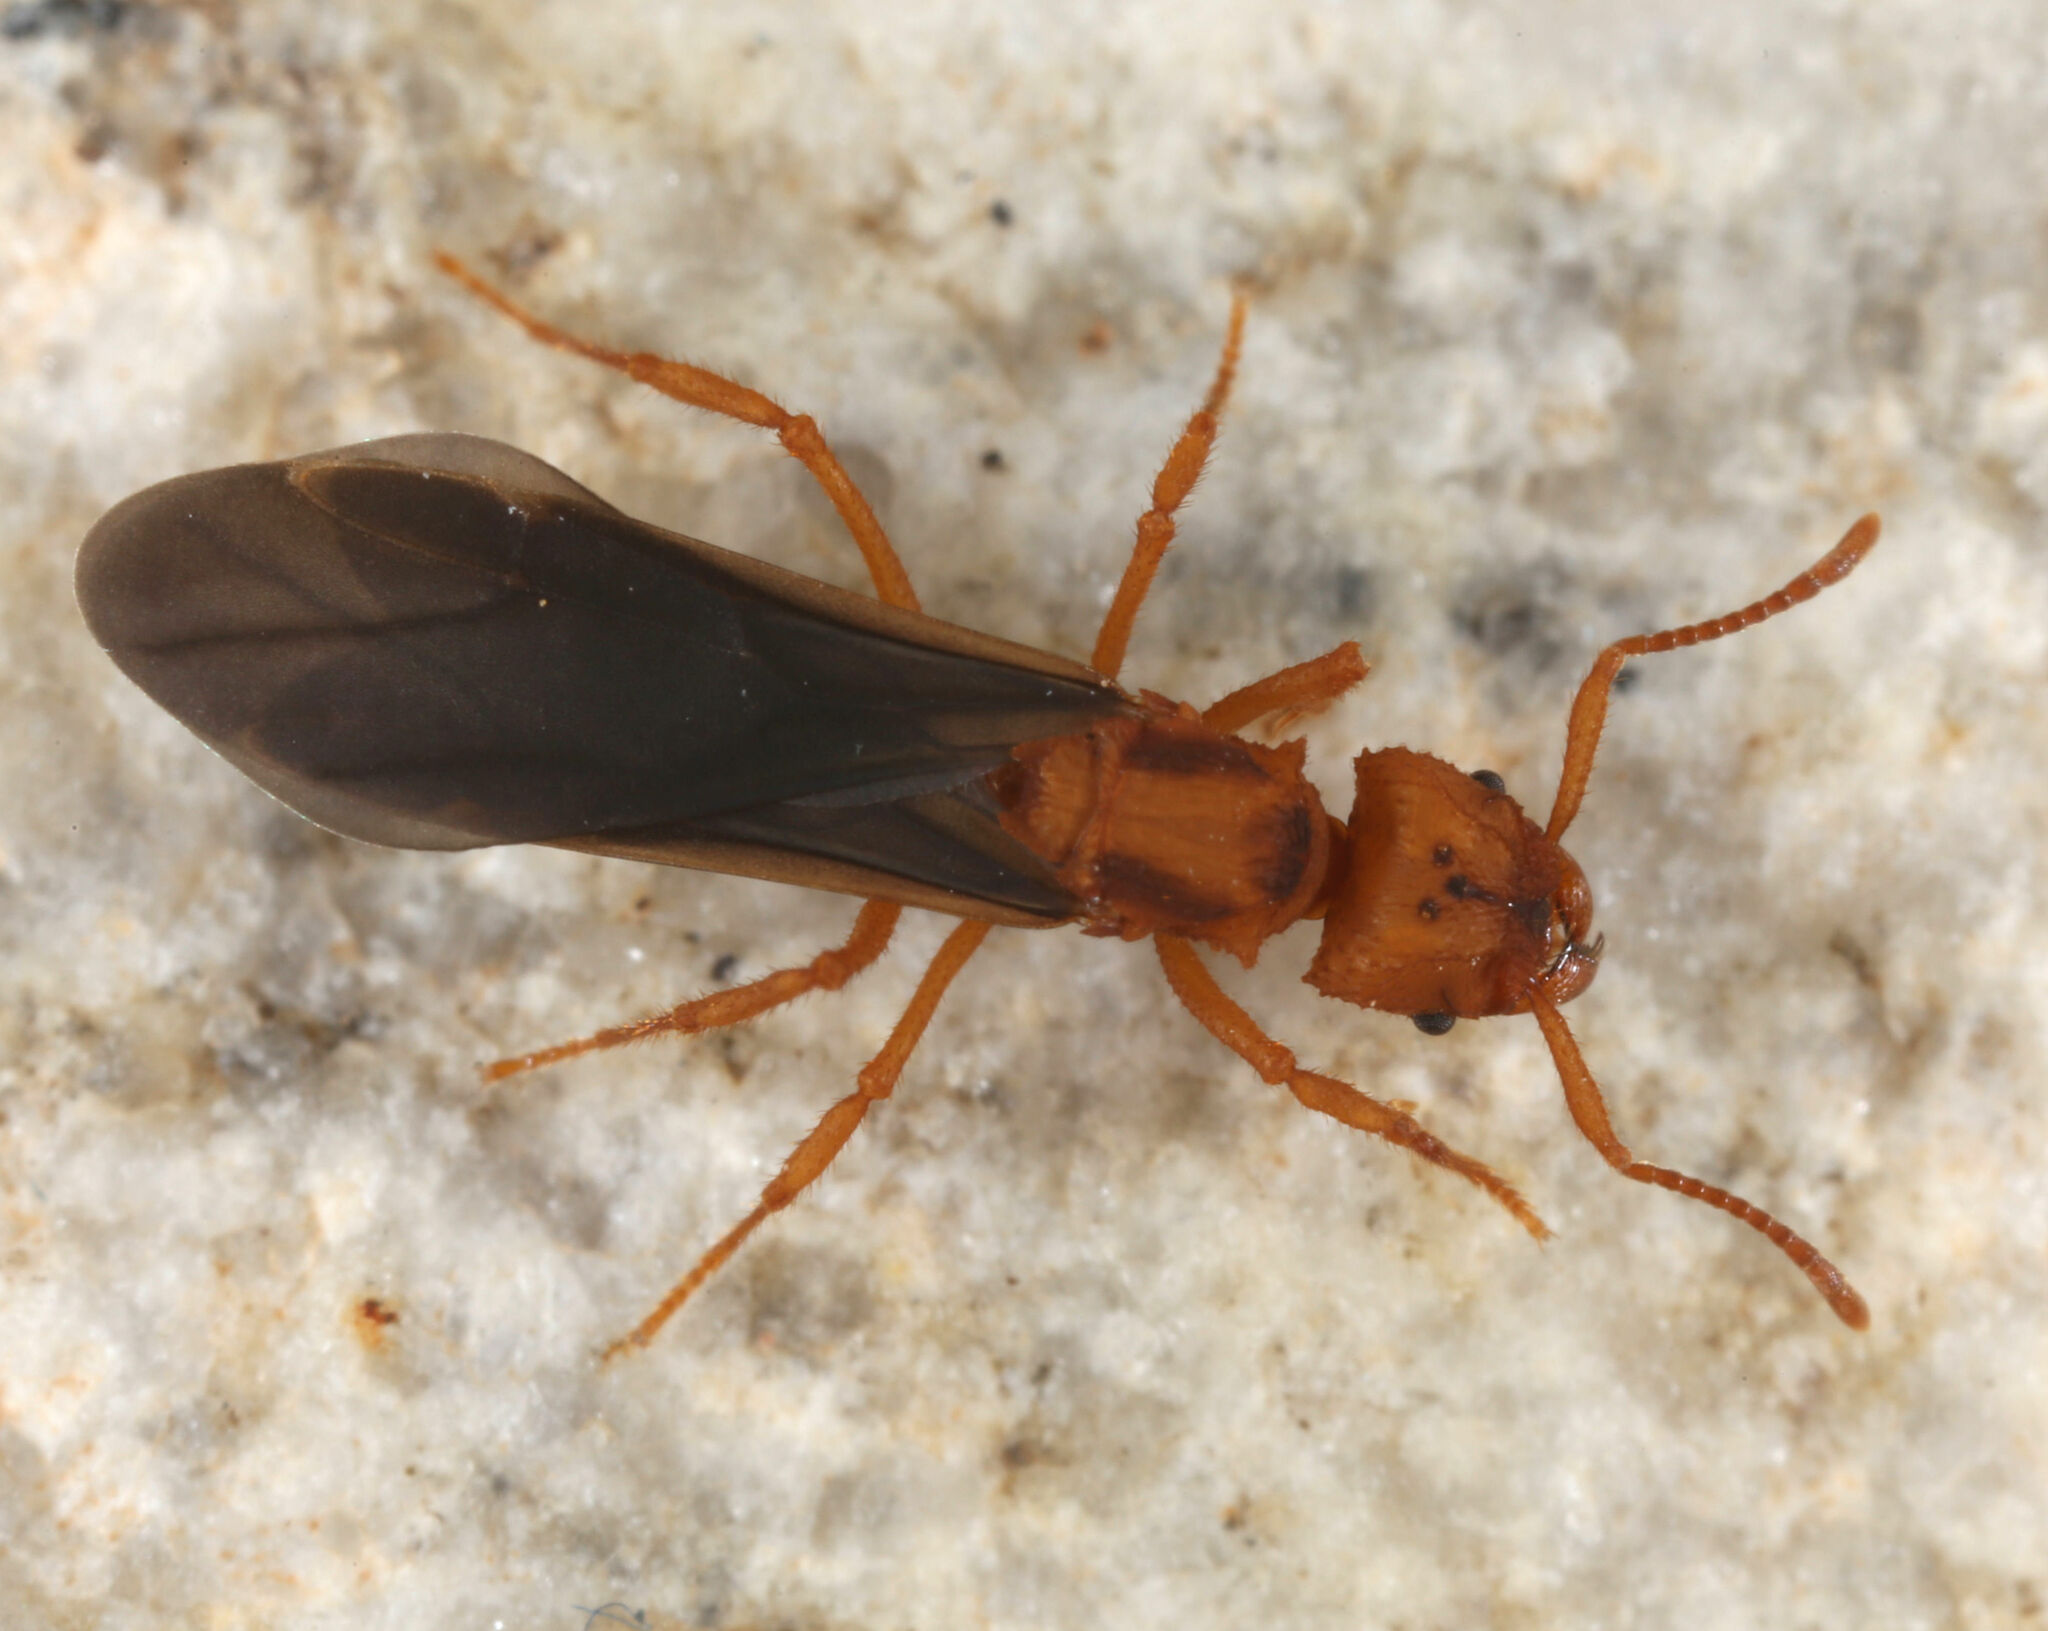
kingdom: Animalia
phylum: Arthropoda
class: Insecta
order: Hymenoptera
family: Formicidae
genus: Trachymyrmex
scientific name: Trachymyrmex desertorum
